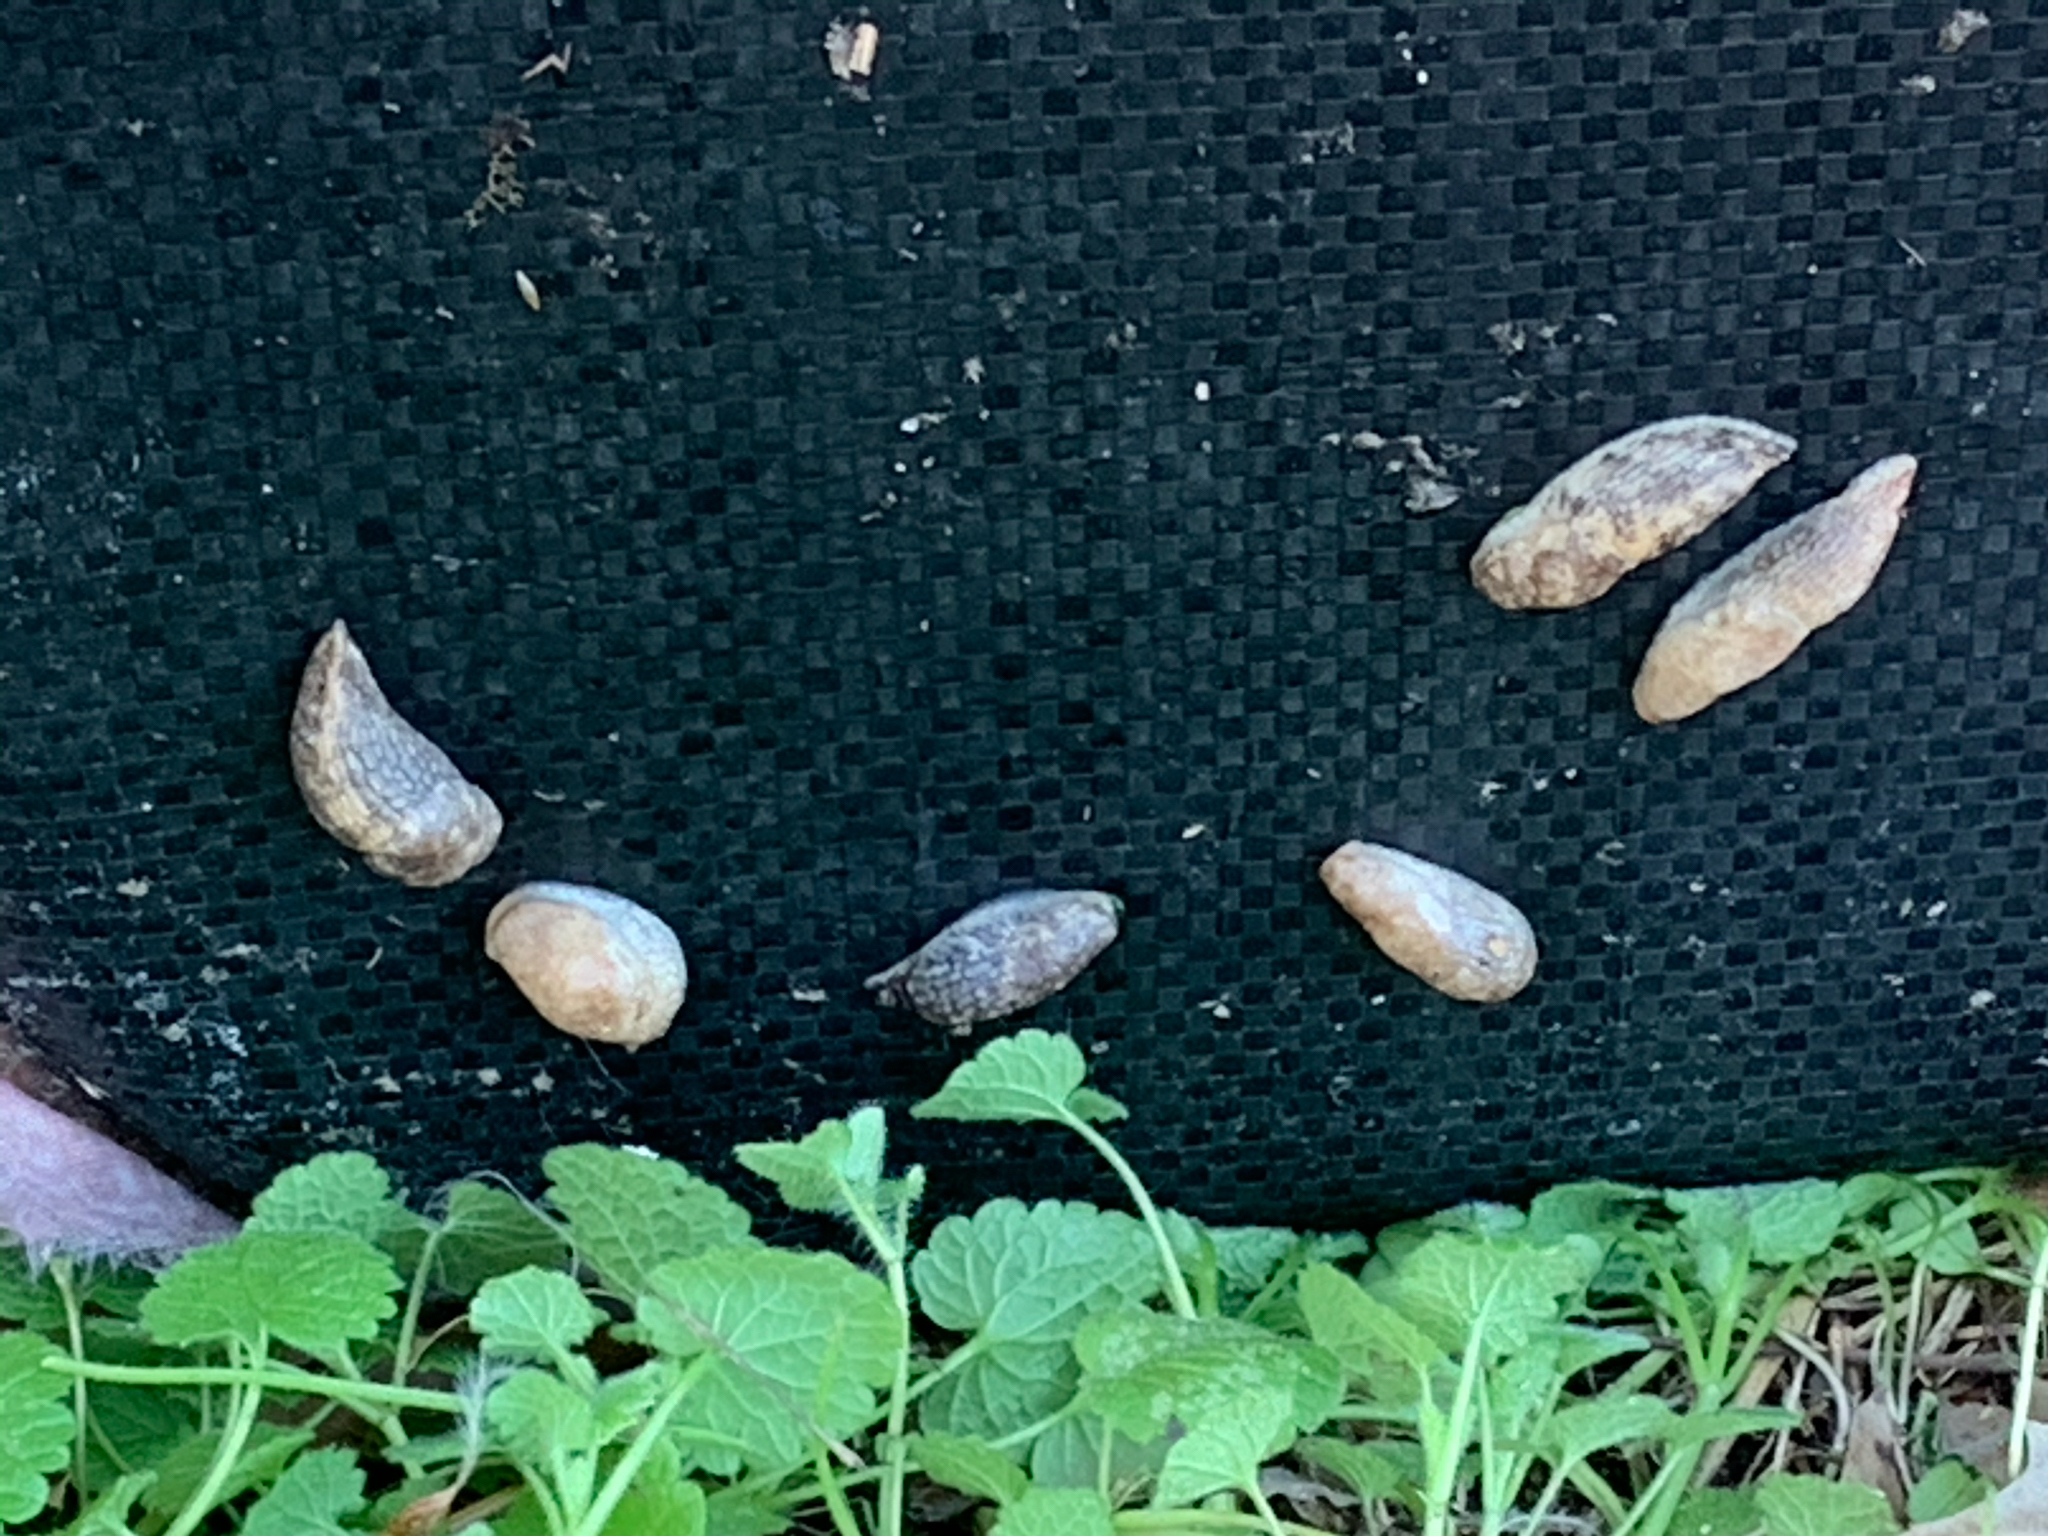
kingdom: Animalia
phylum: Mollusca
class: Gastropoda
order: Stylommatophora
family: Agriolimacidae
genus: Deroceras
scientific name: Deroceras reticulatum
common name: Gray field slug
